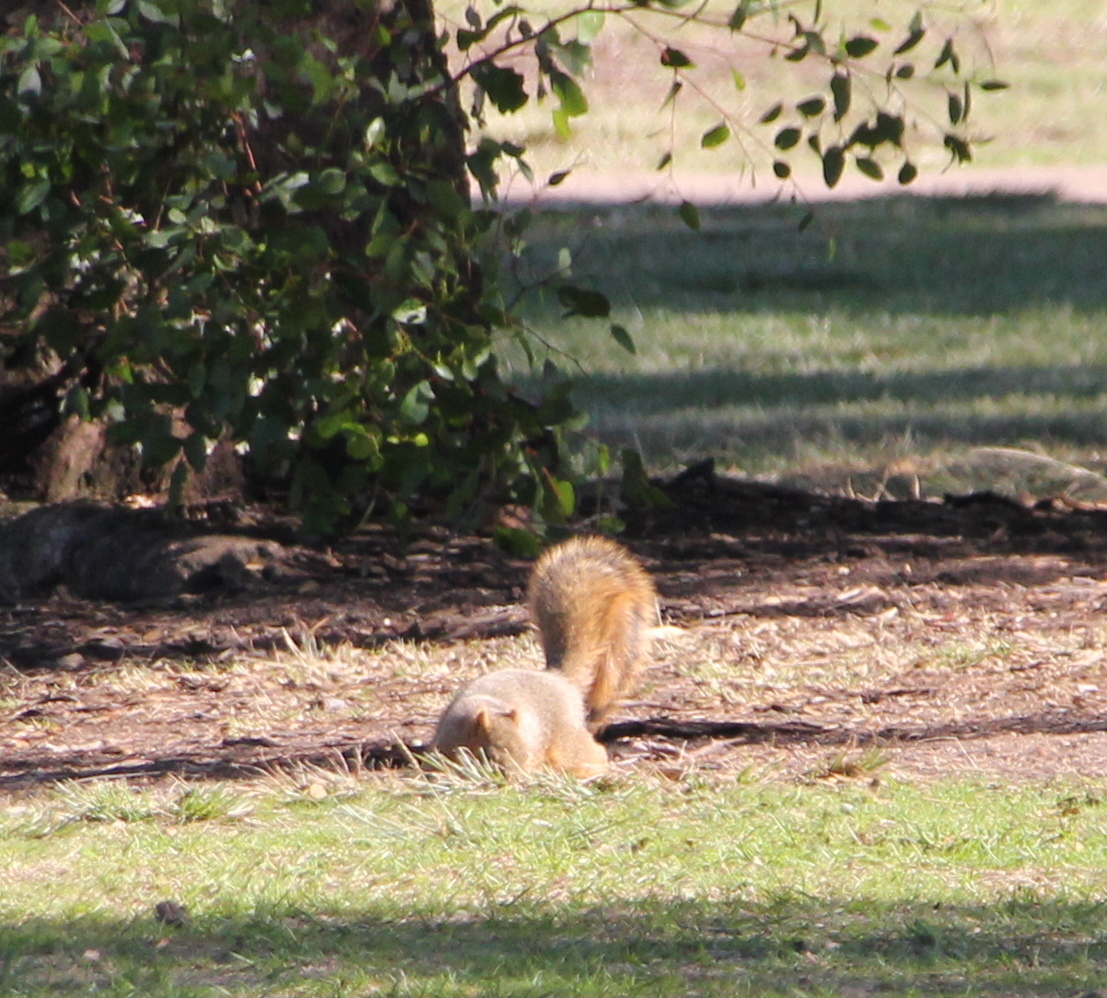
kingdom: Animalia
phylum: Chordata
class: Mammalia
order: Rodentia
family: Sciuridae
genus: Sciurus
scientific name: Sciurus niger
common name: Fox squirrel
